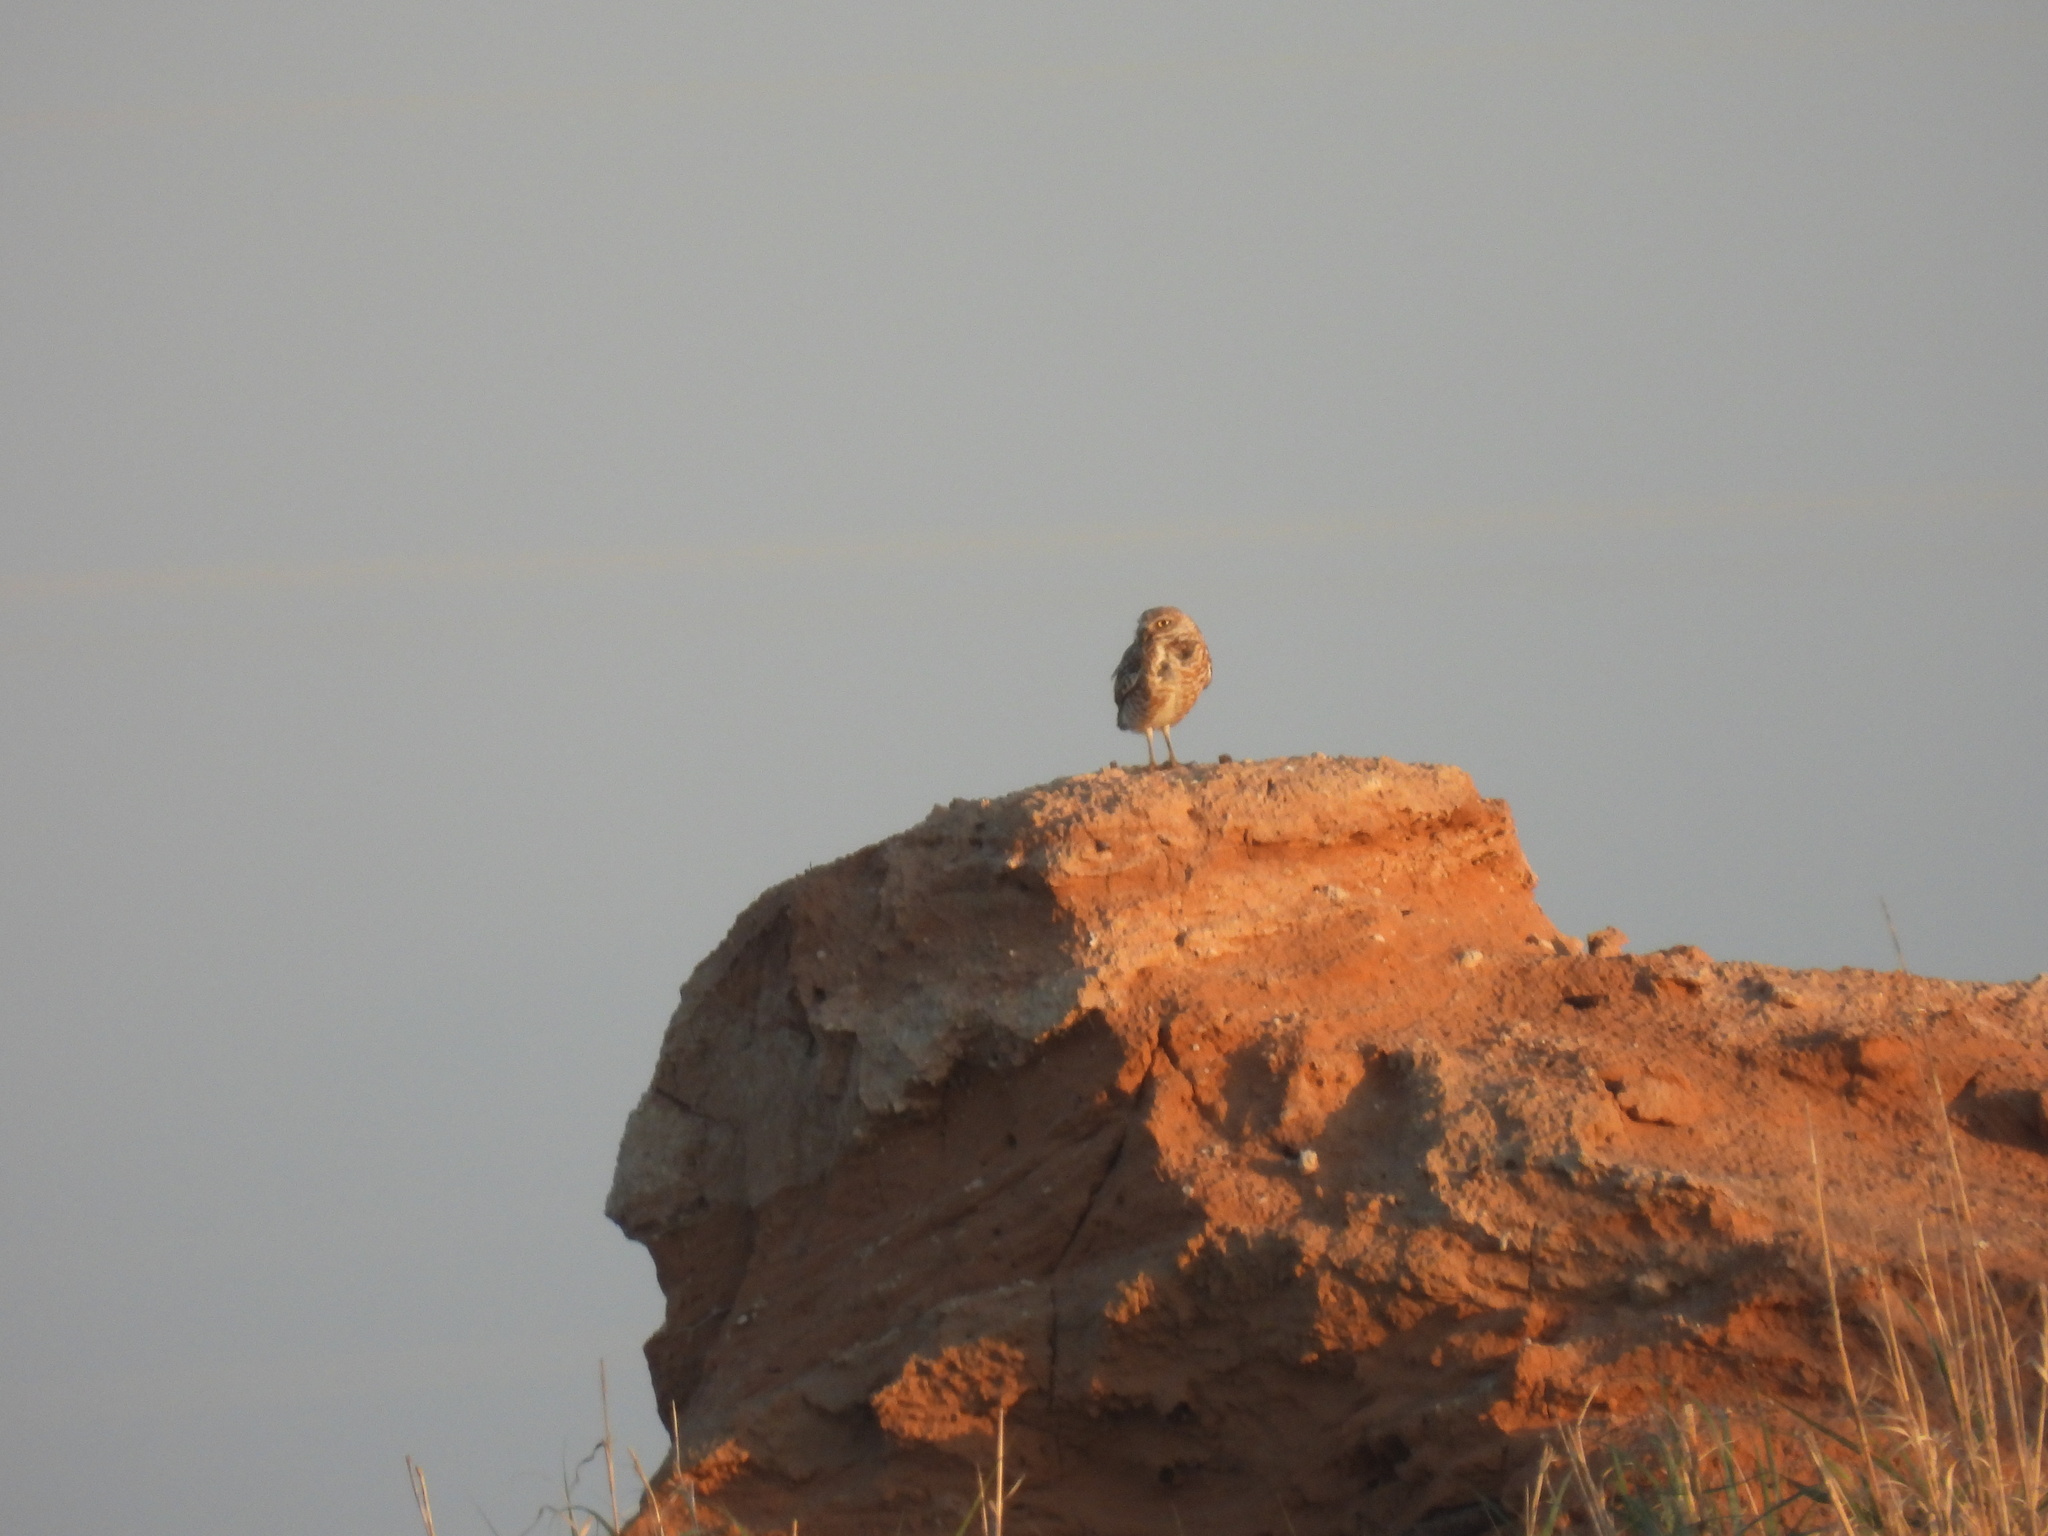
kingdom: Animalia
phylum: Chordata
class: Aves
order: Strigiformes
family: Strigidae
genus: Athene
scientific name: Athene cunicularia
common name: Burrowing owl
